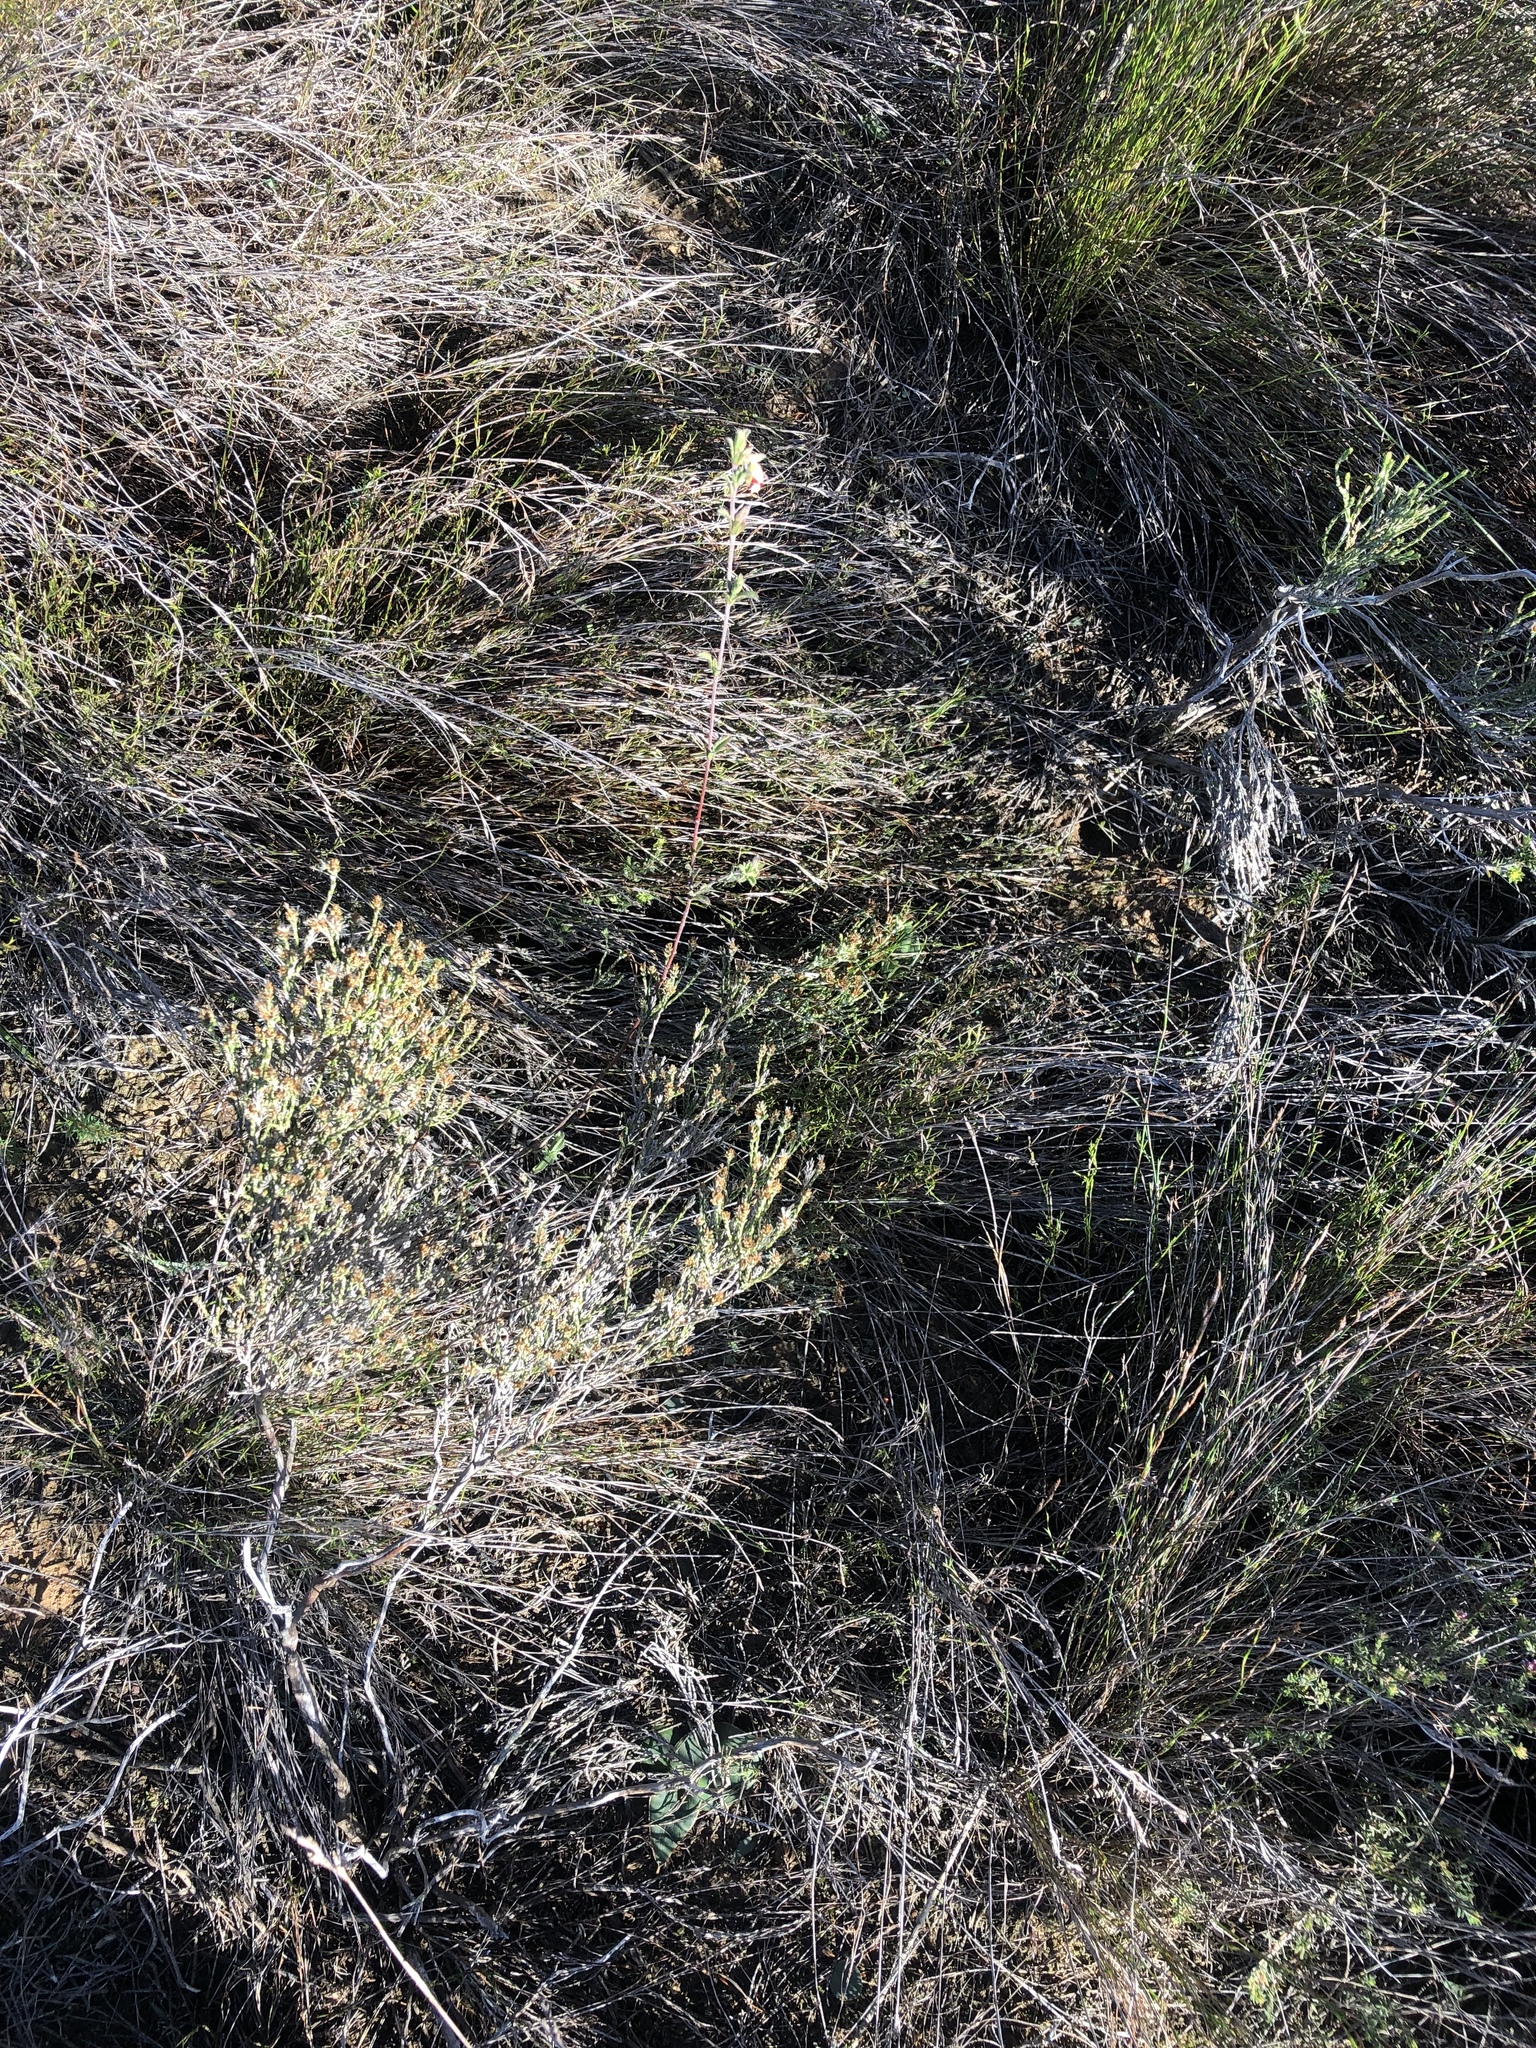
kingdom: Plantae
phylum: Tracheophyta
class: Magnoliopsida
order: Malvales
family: Malvaceae
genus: Hermannia
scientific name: Hermannia flammula
